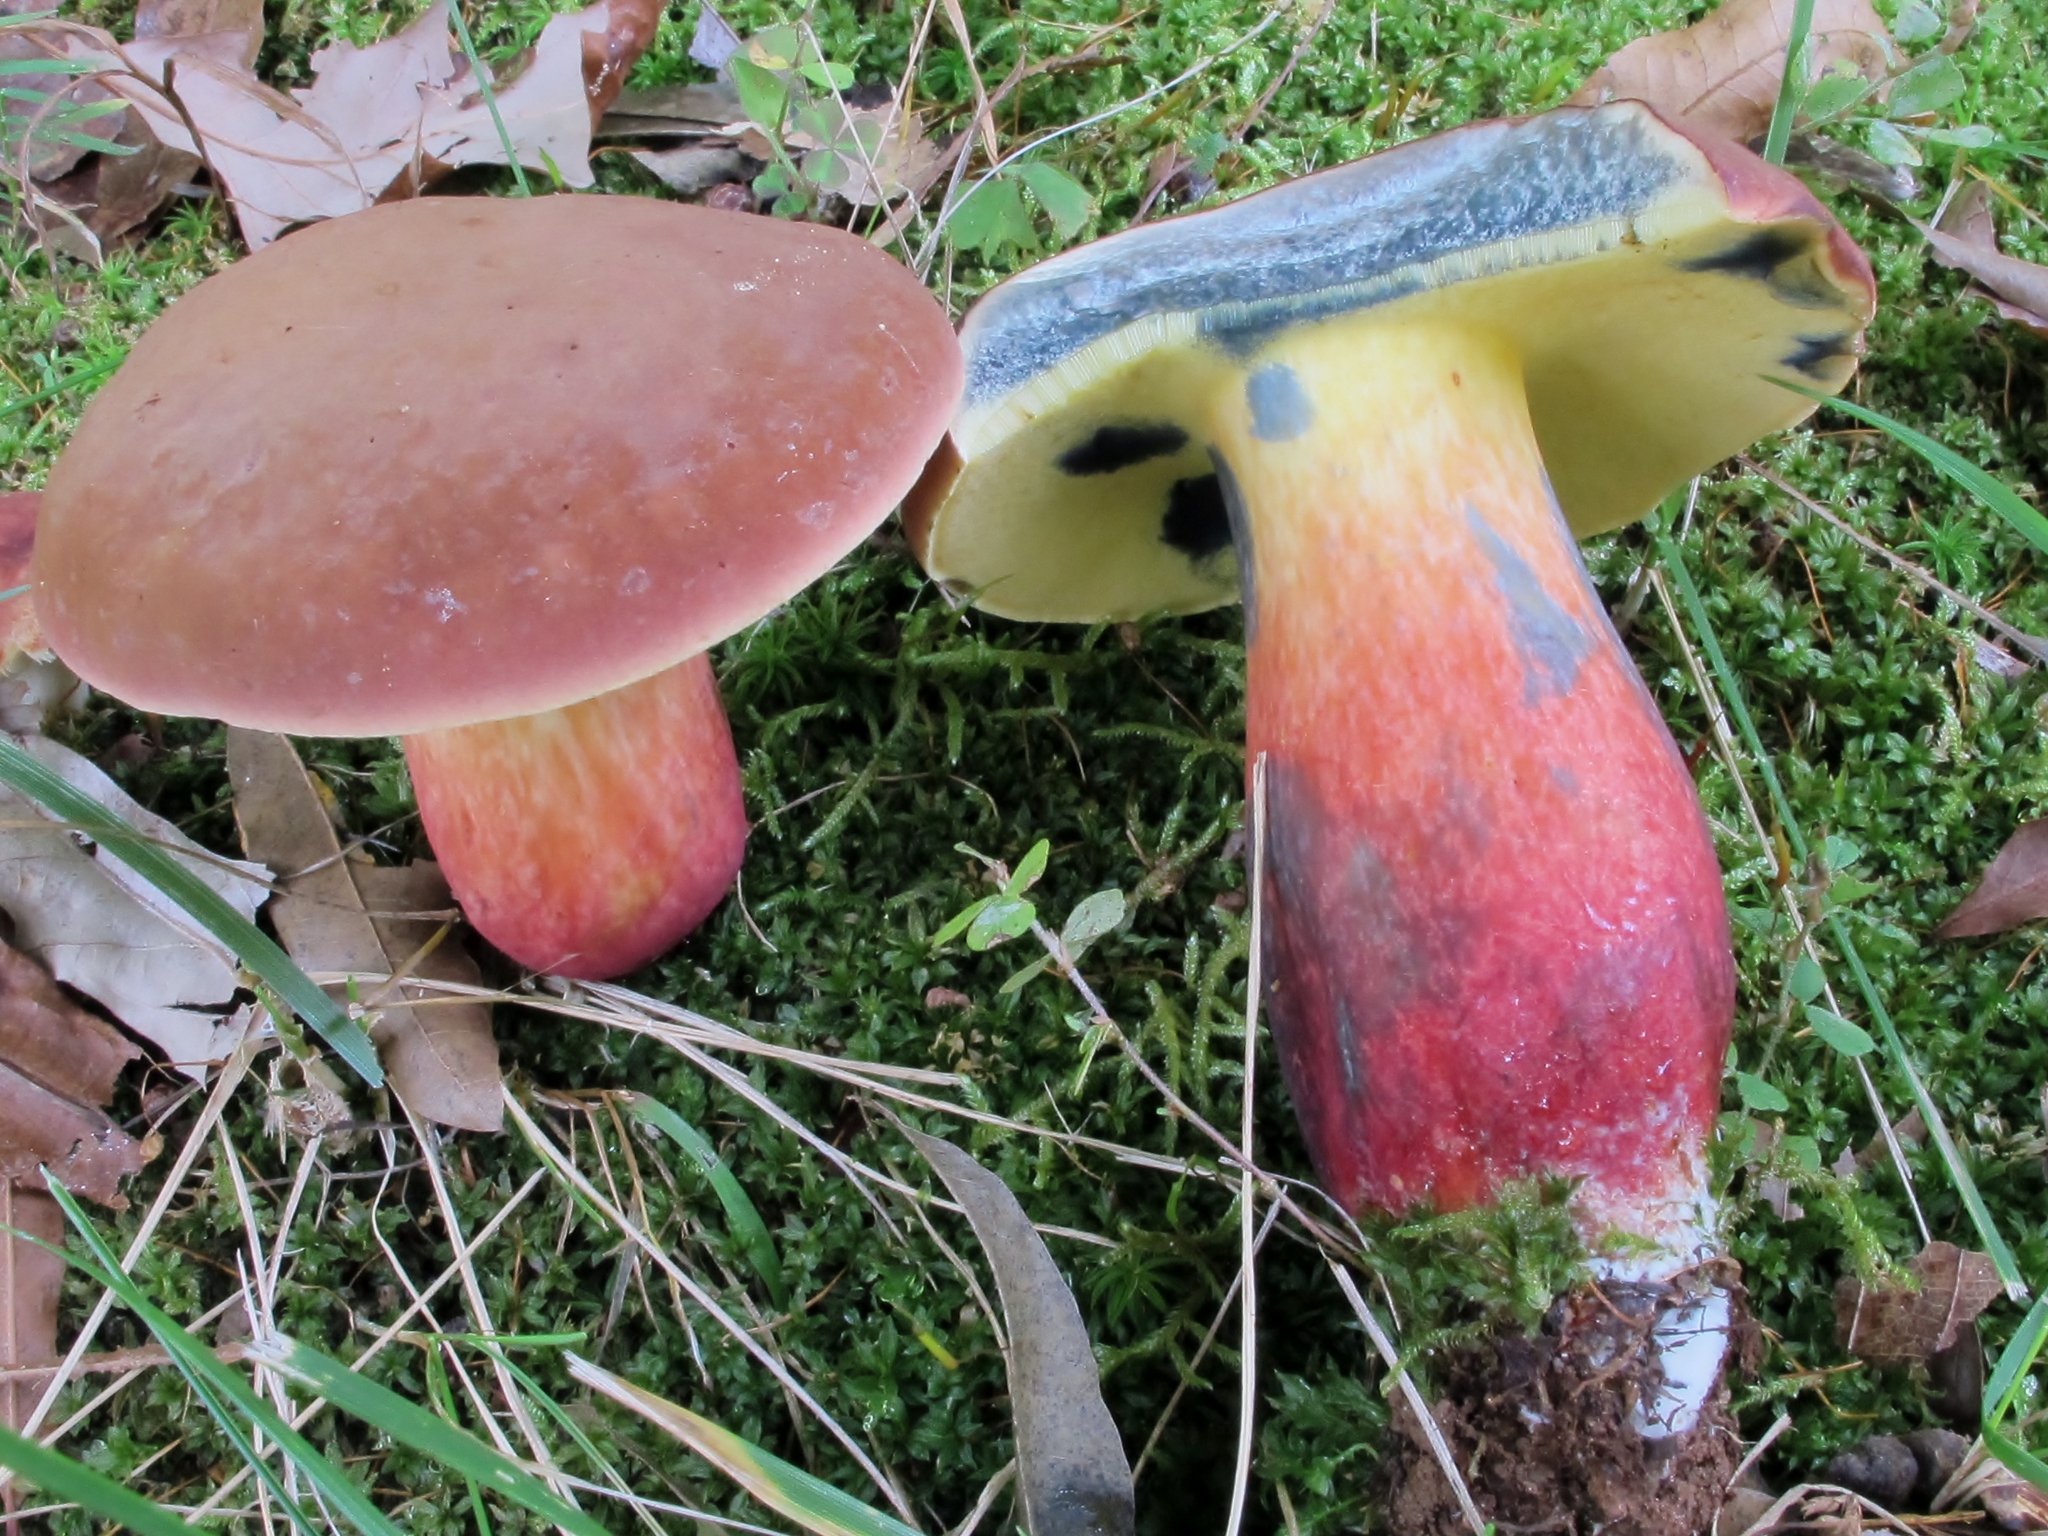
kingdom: Fungi
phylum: Basidiomycota
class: Agaricomycetes
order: Boletales
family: Boletaceae
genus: Lanmaoa
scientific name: Lanmaoa pseudosensibilis
